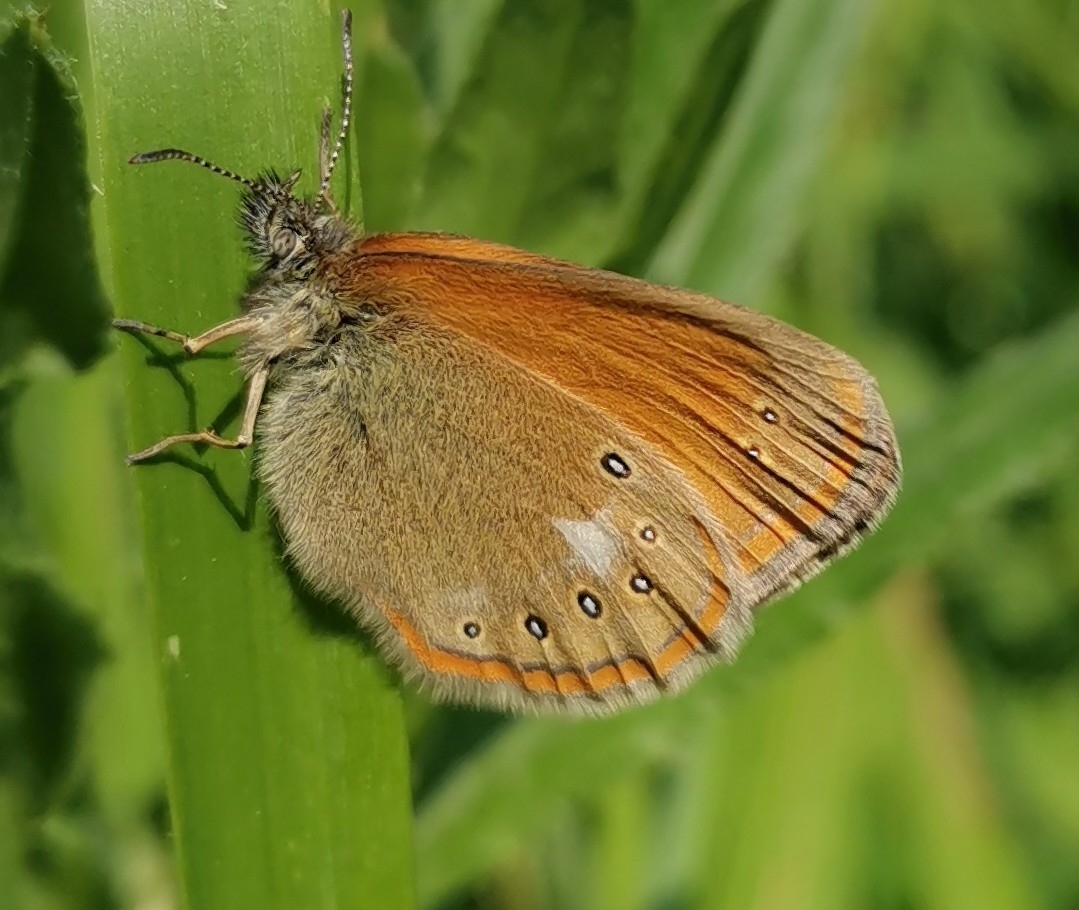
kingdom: Animalia
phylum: Arthropoda
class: Insecta
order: Lepidoptera
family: Nymphalidae
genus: Coenonympha
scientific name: Coenonympha iphis
